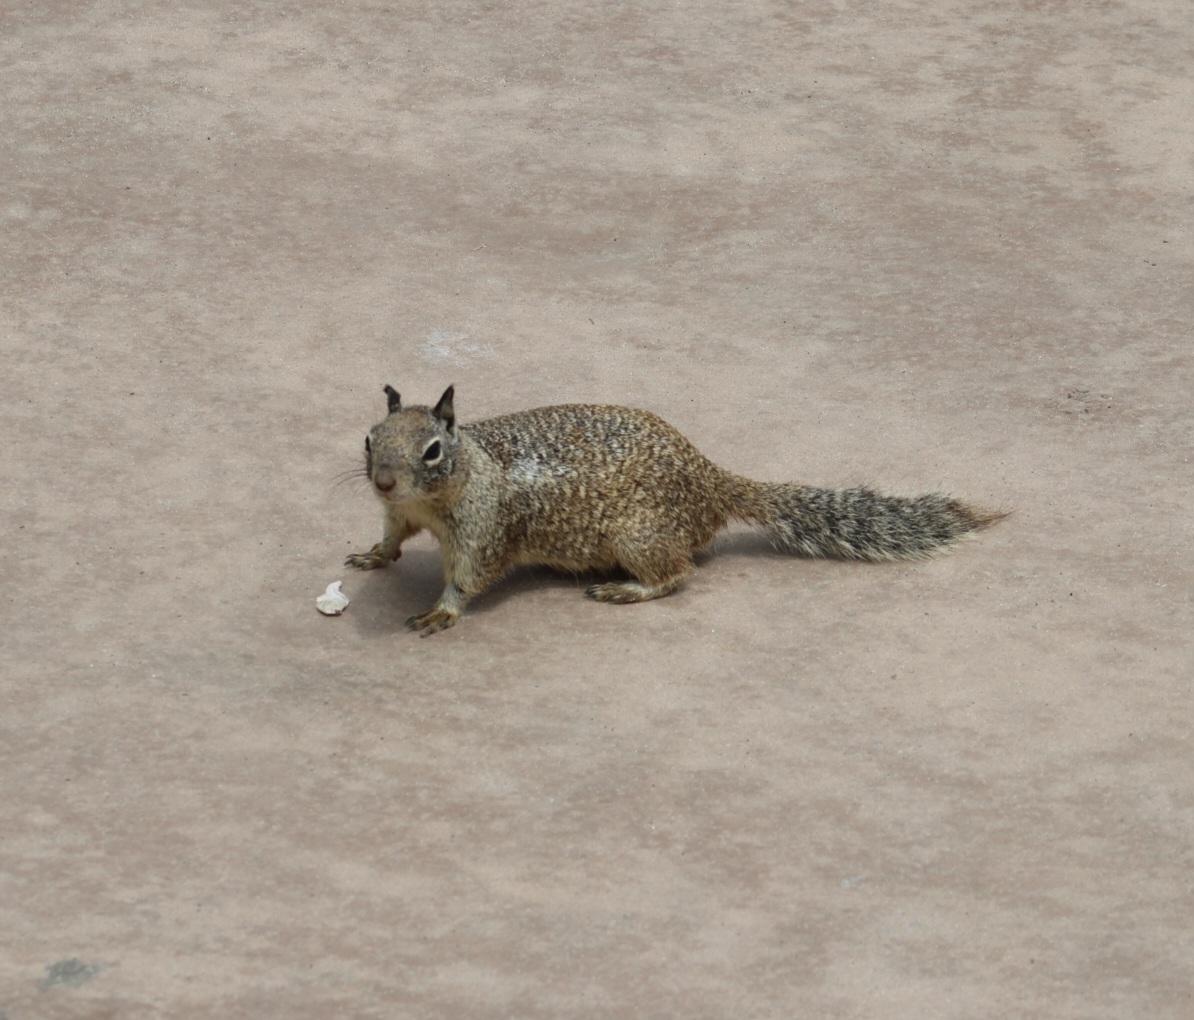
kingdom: Animalia
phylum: Chordata
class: Mammalia
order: Rodentia
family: Sciuridae
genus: Otospermophilus
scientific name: Otospermophilus beecheyi
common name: California ground squirrel
